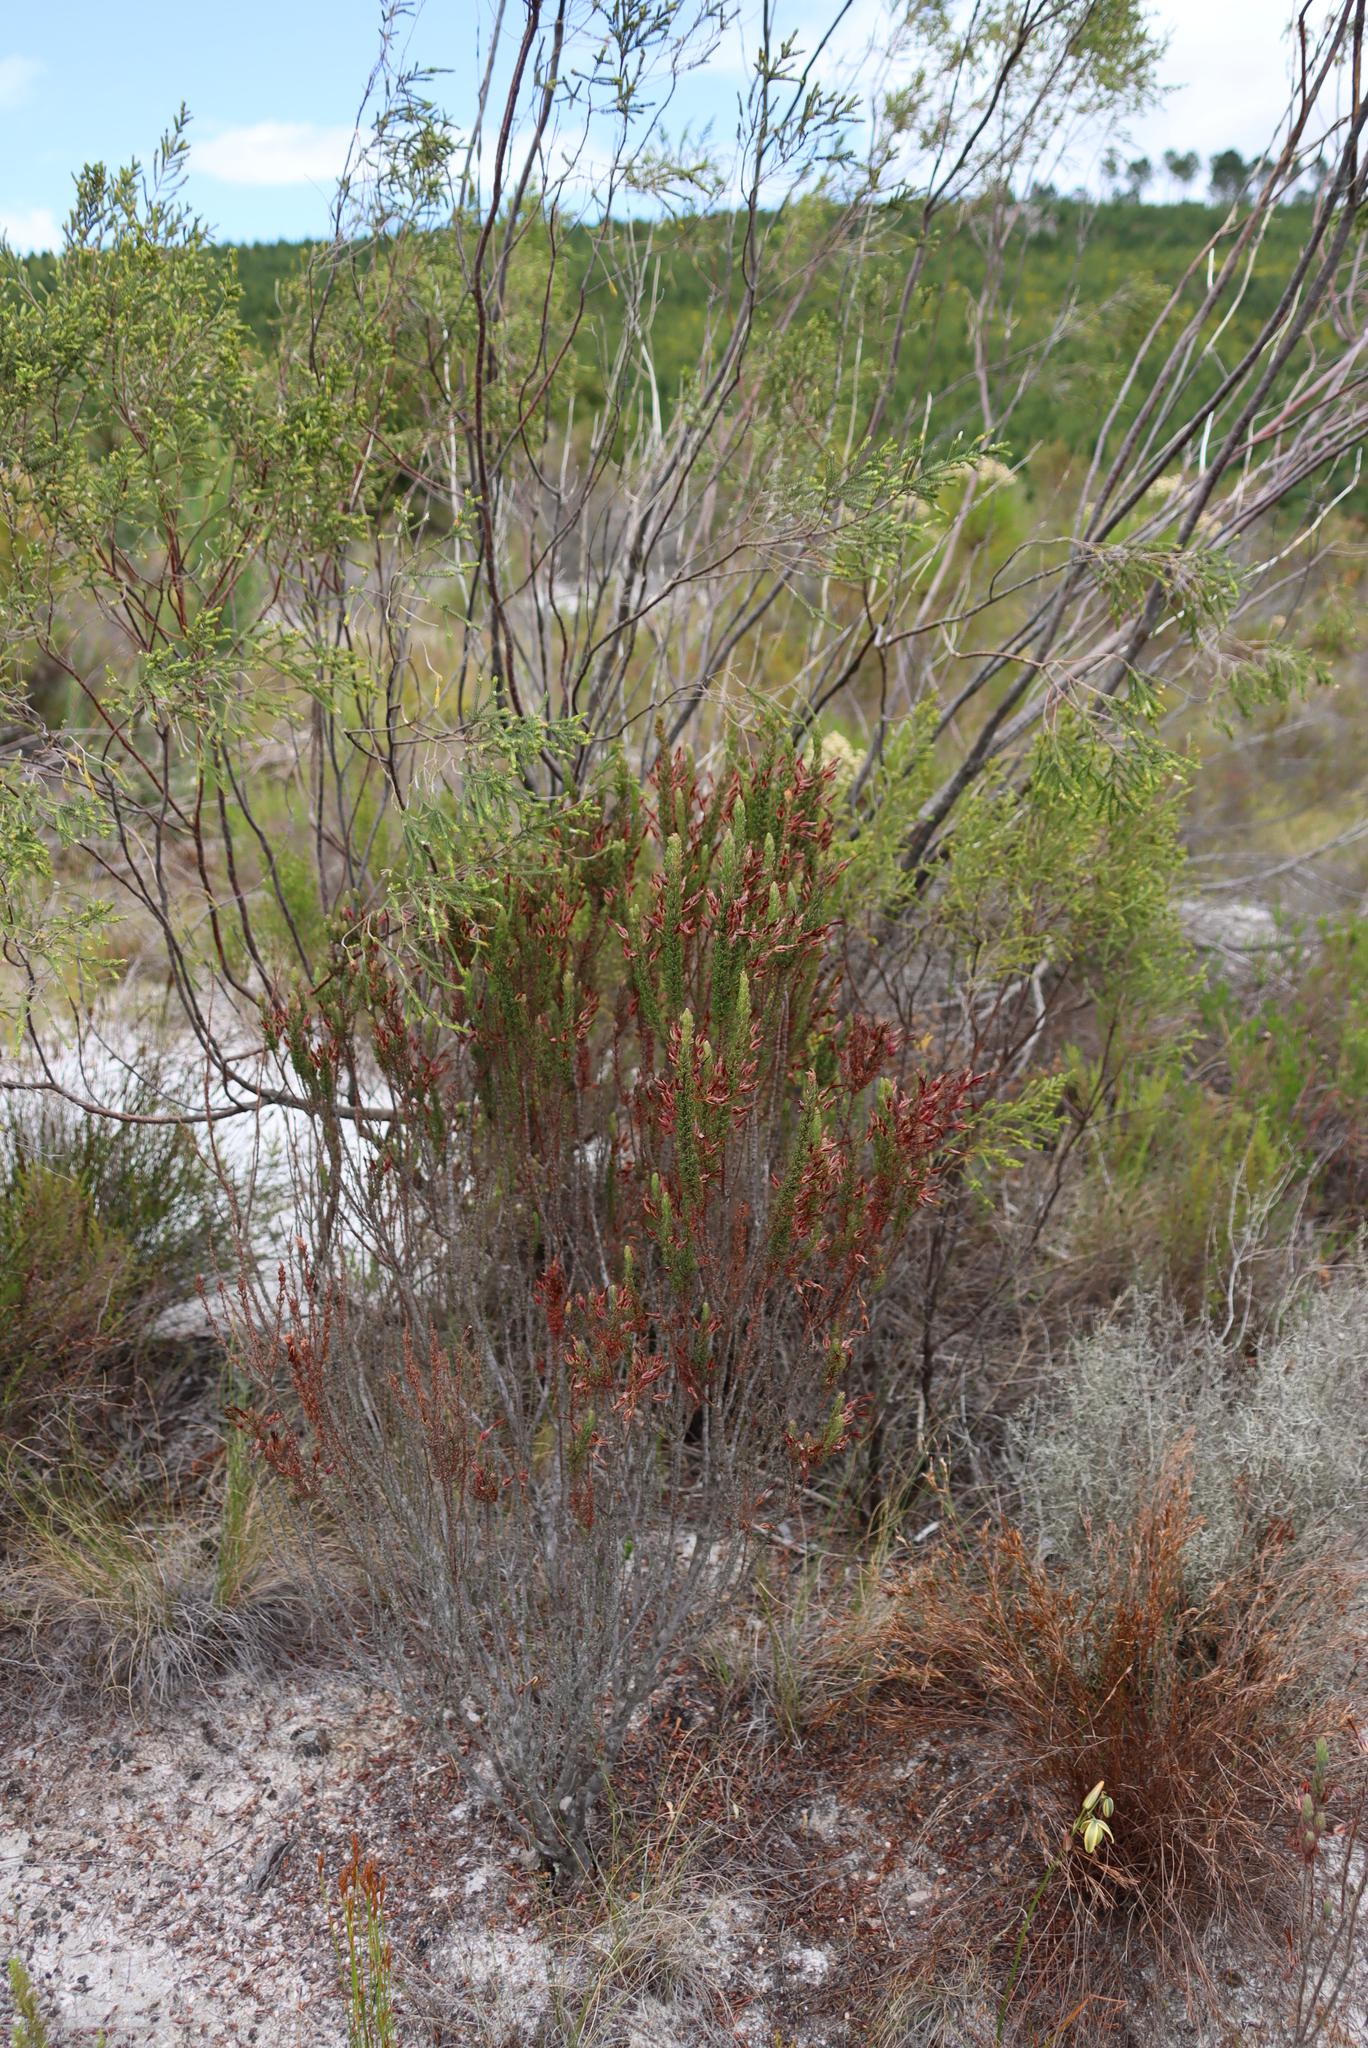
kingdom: Plantae
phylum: Tracheophyta
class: Magnoliopsida
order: Ericales
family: Ericaceae
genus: Erica
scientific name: Erica plukenetii
